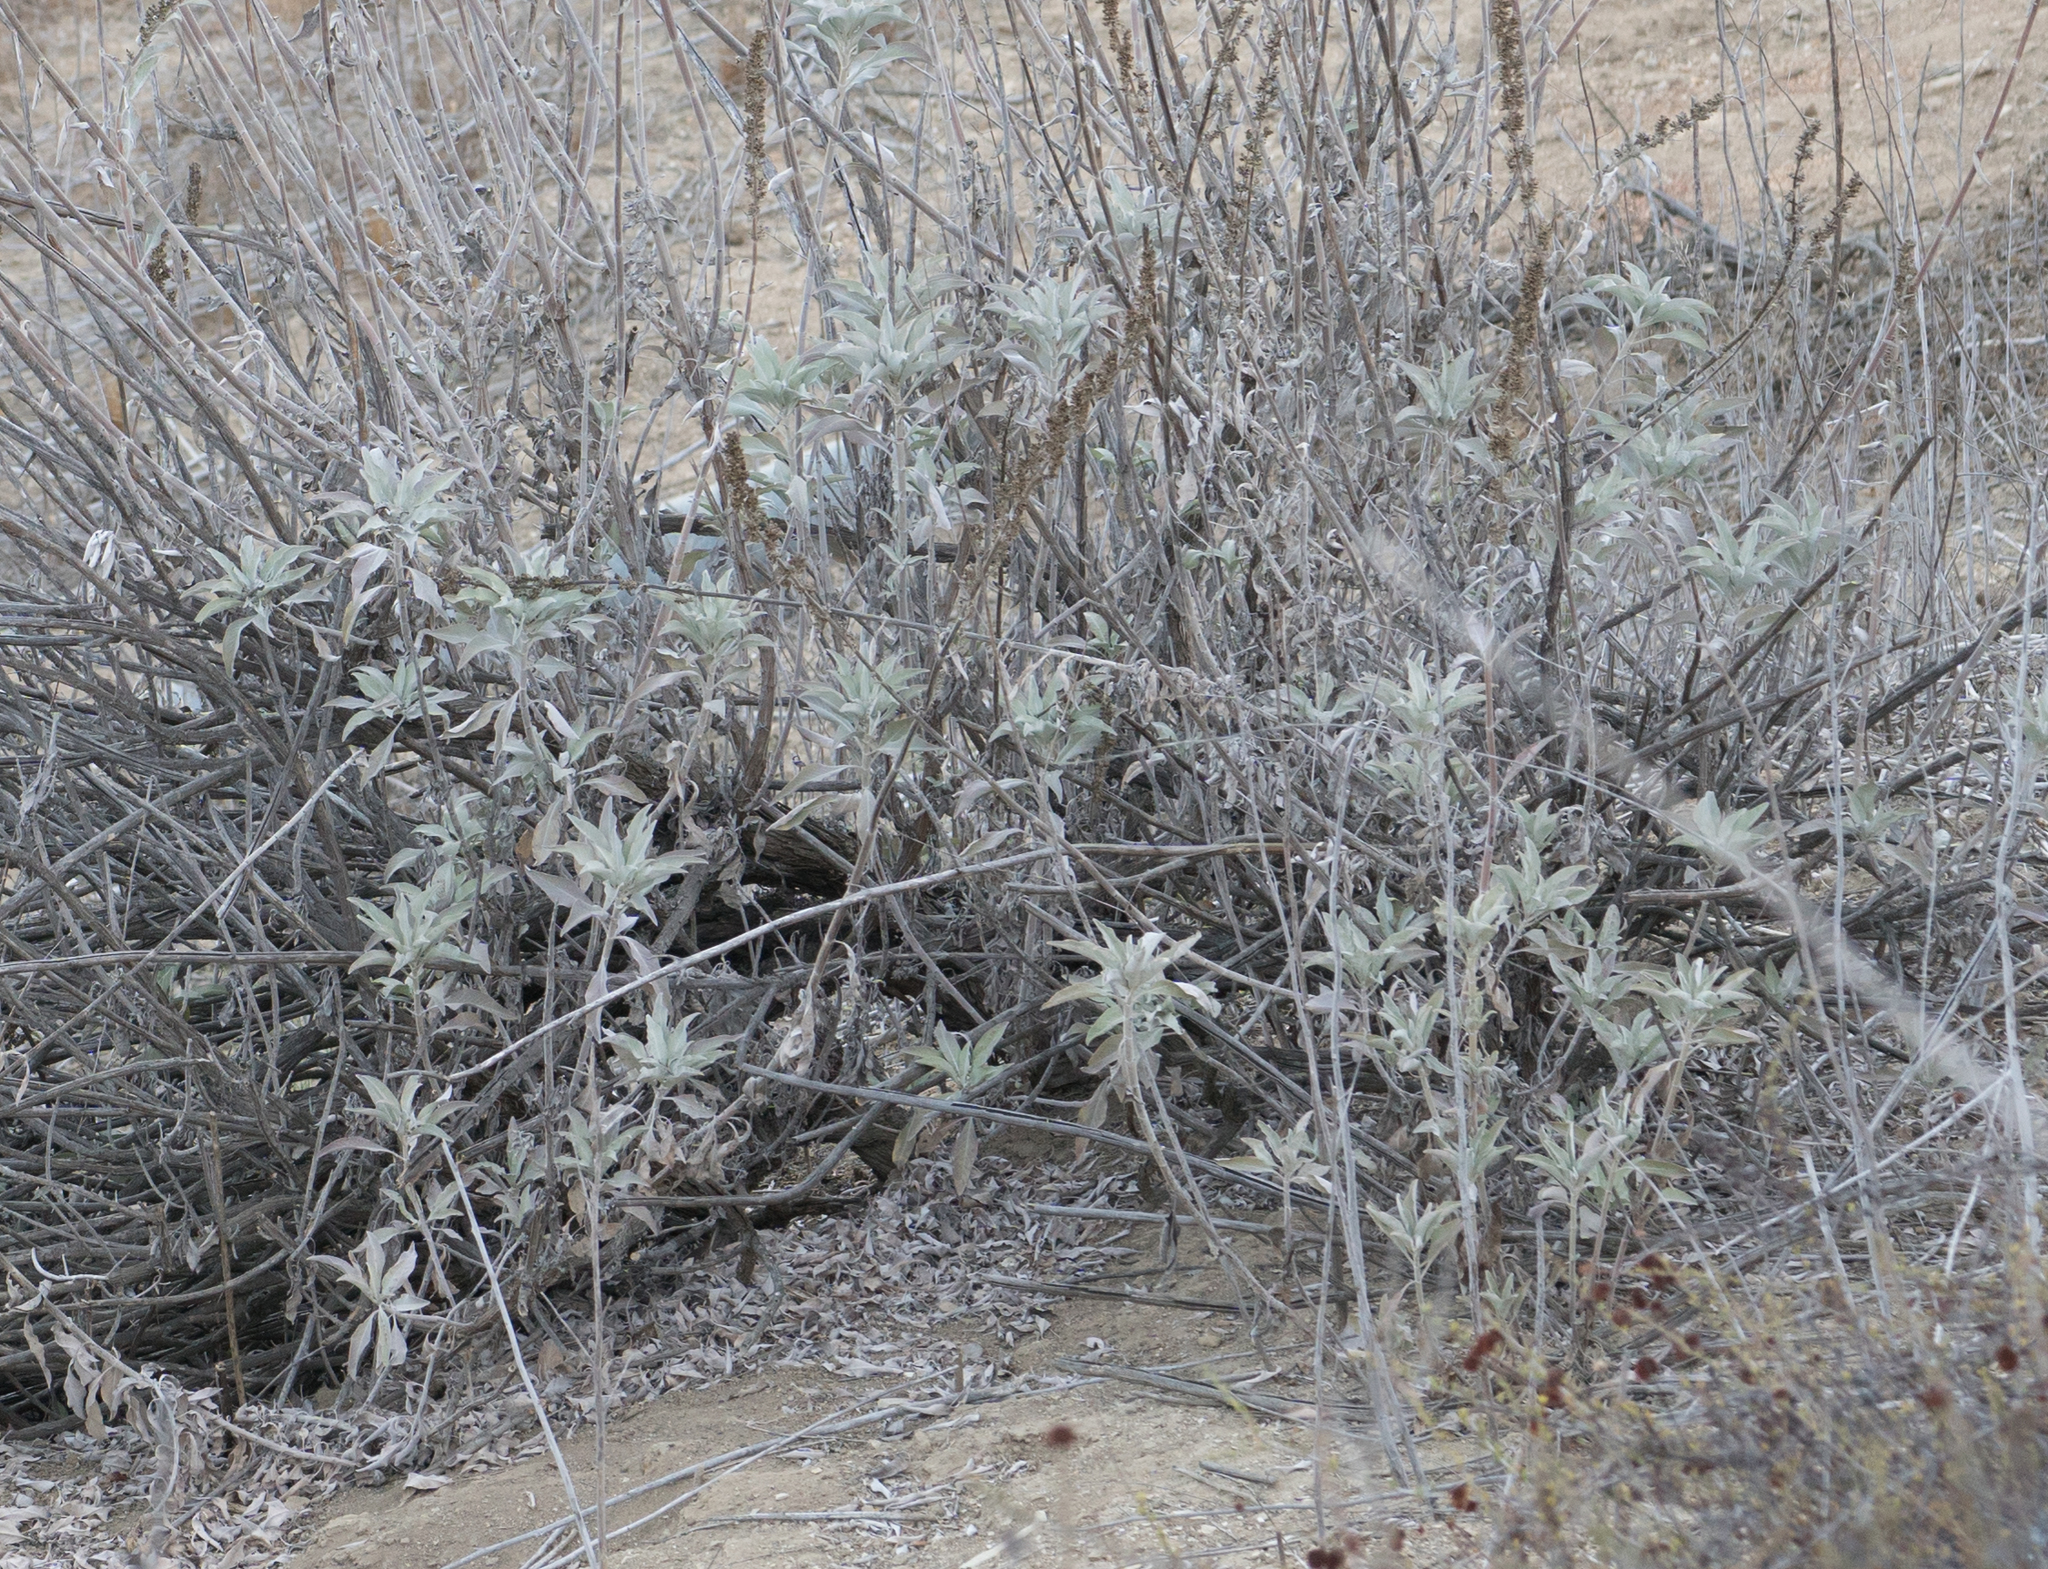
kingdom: Plantae
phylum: Tracheophyta
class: Magnoliopsida
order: Lamiales
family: Lamiaceae
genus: Salvia
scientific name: Salvia apiana
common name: White sage
